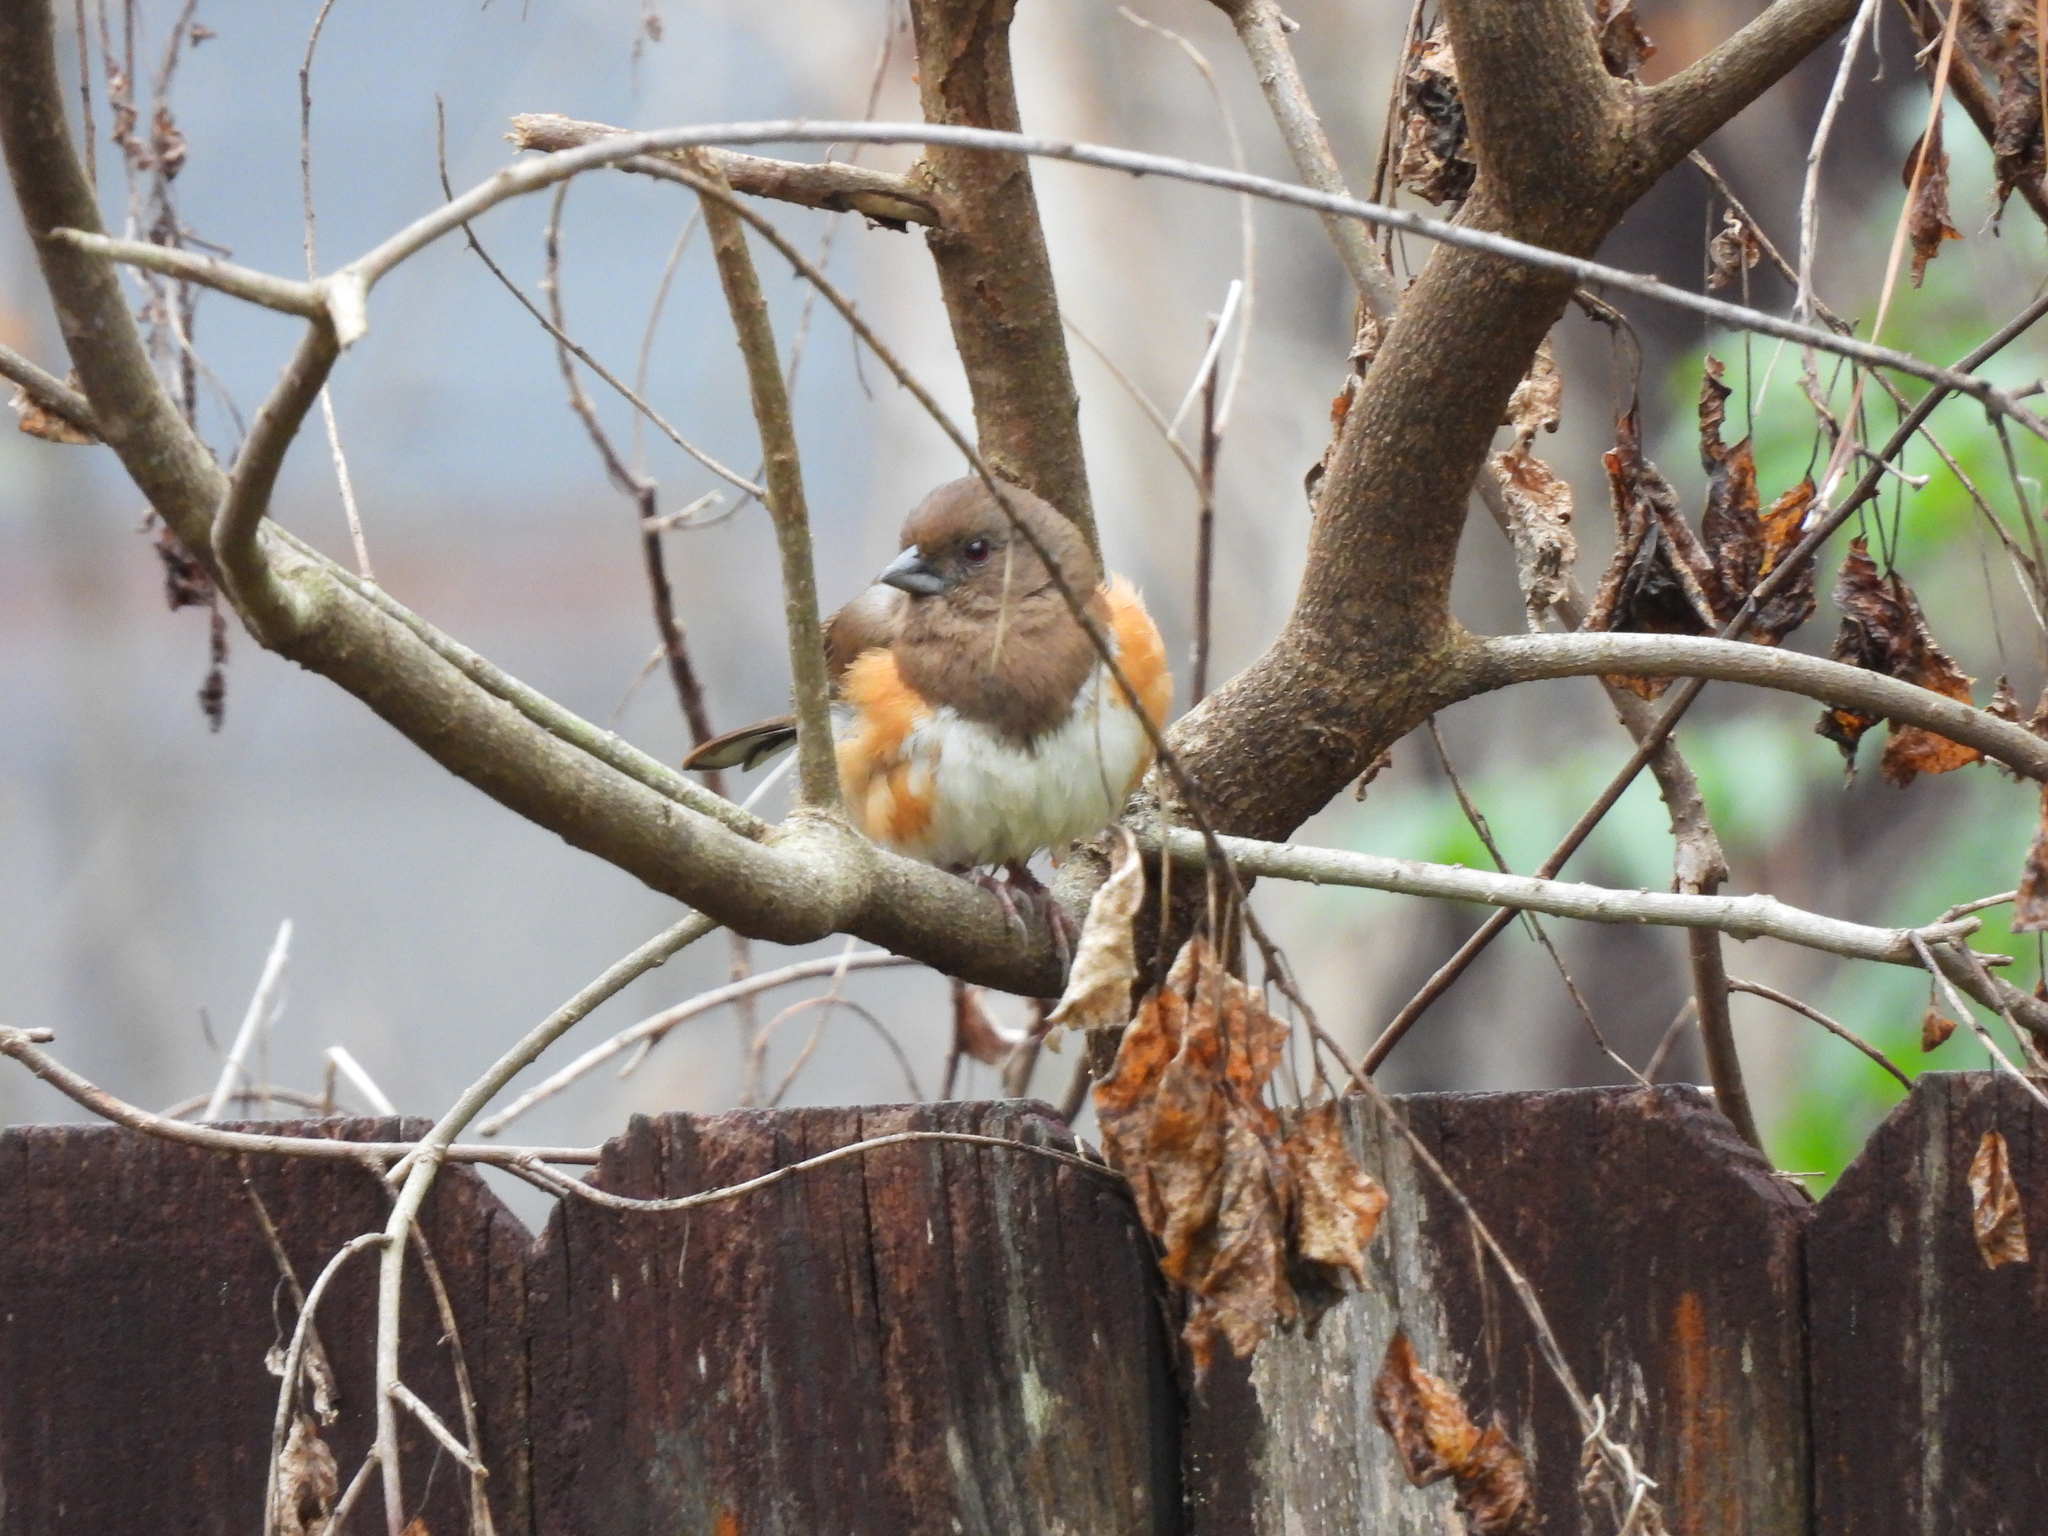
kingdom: Animalia
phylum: Chordata
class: Aves
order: Passeriformes
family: Passerellidae
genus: Pipilo
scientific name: Pipilo erythrophthalmus
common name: Eastern towhee
